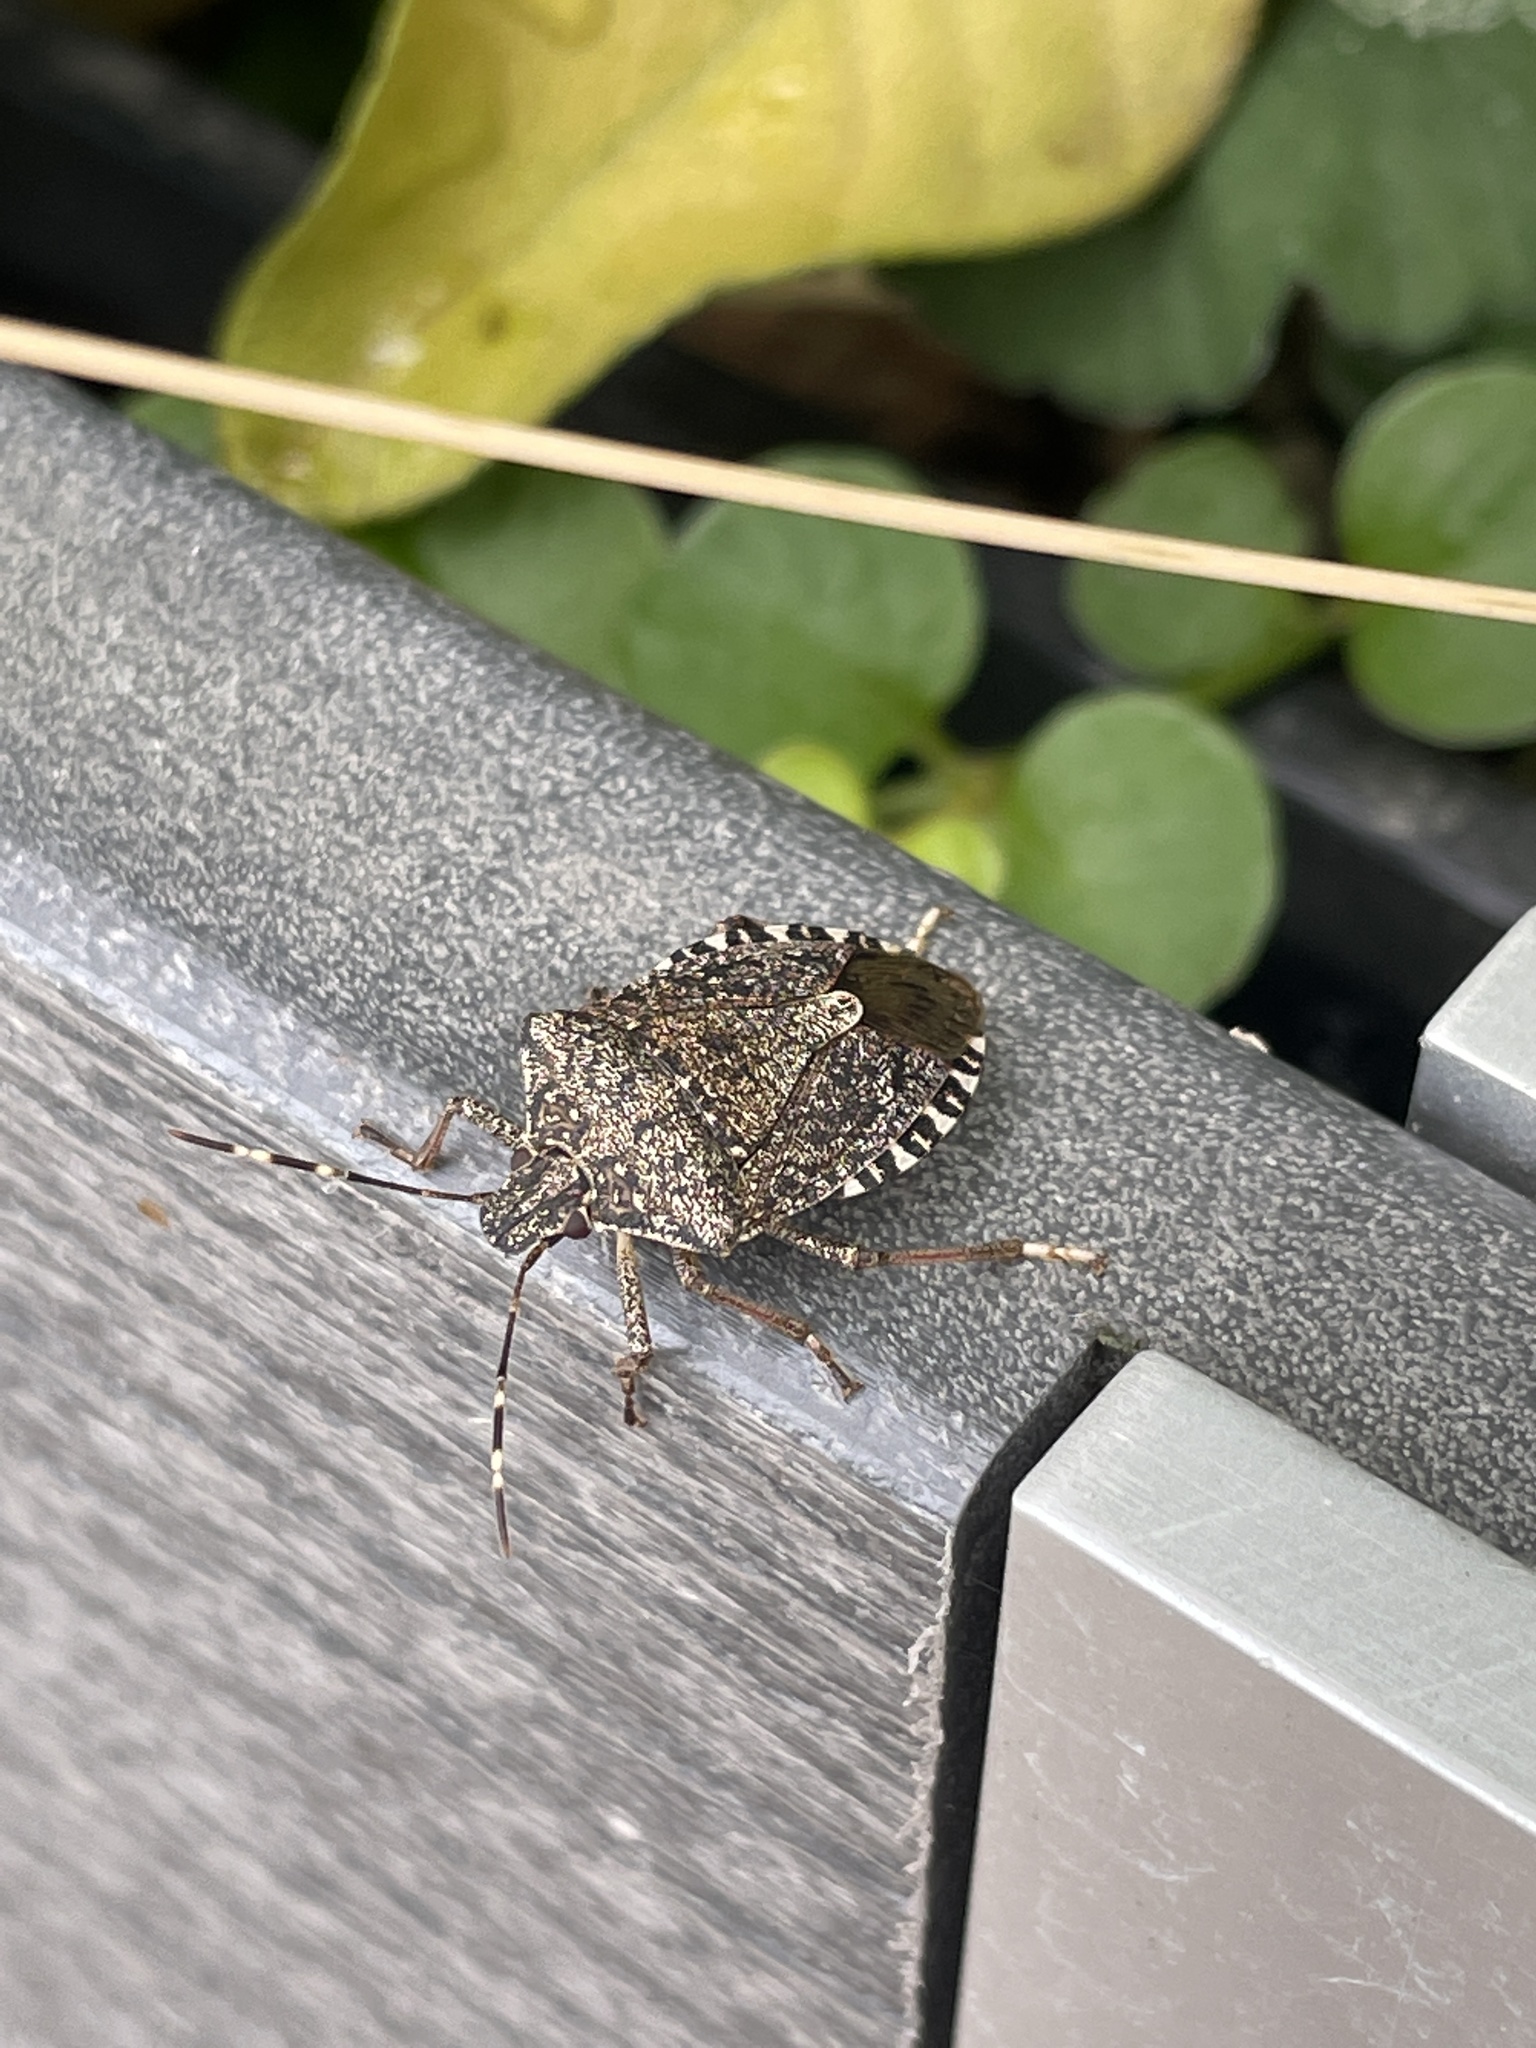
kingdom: Animalia
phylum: Arthropoda
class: Insecta
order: Hemiptera
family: Pentatomidae
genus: Halyomorpha
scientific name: Halyomorpha halys
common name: Brown marmorated stink bug
